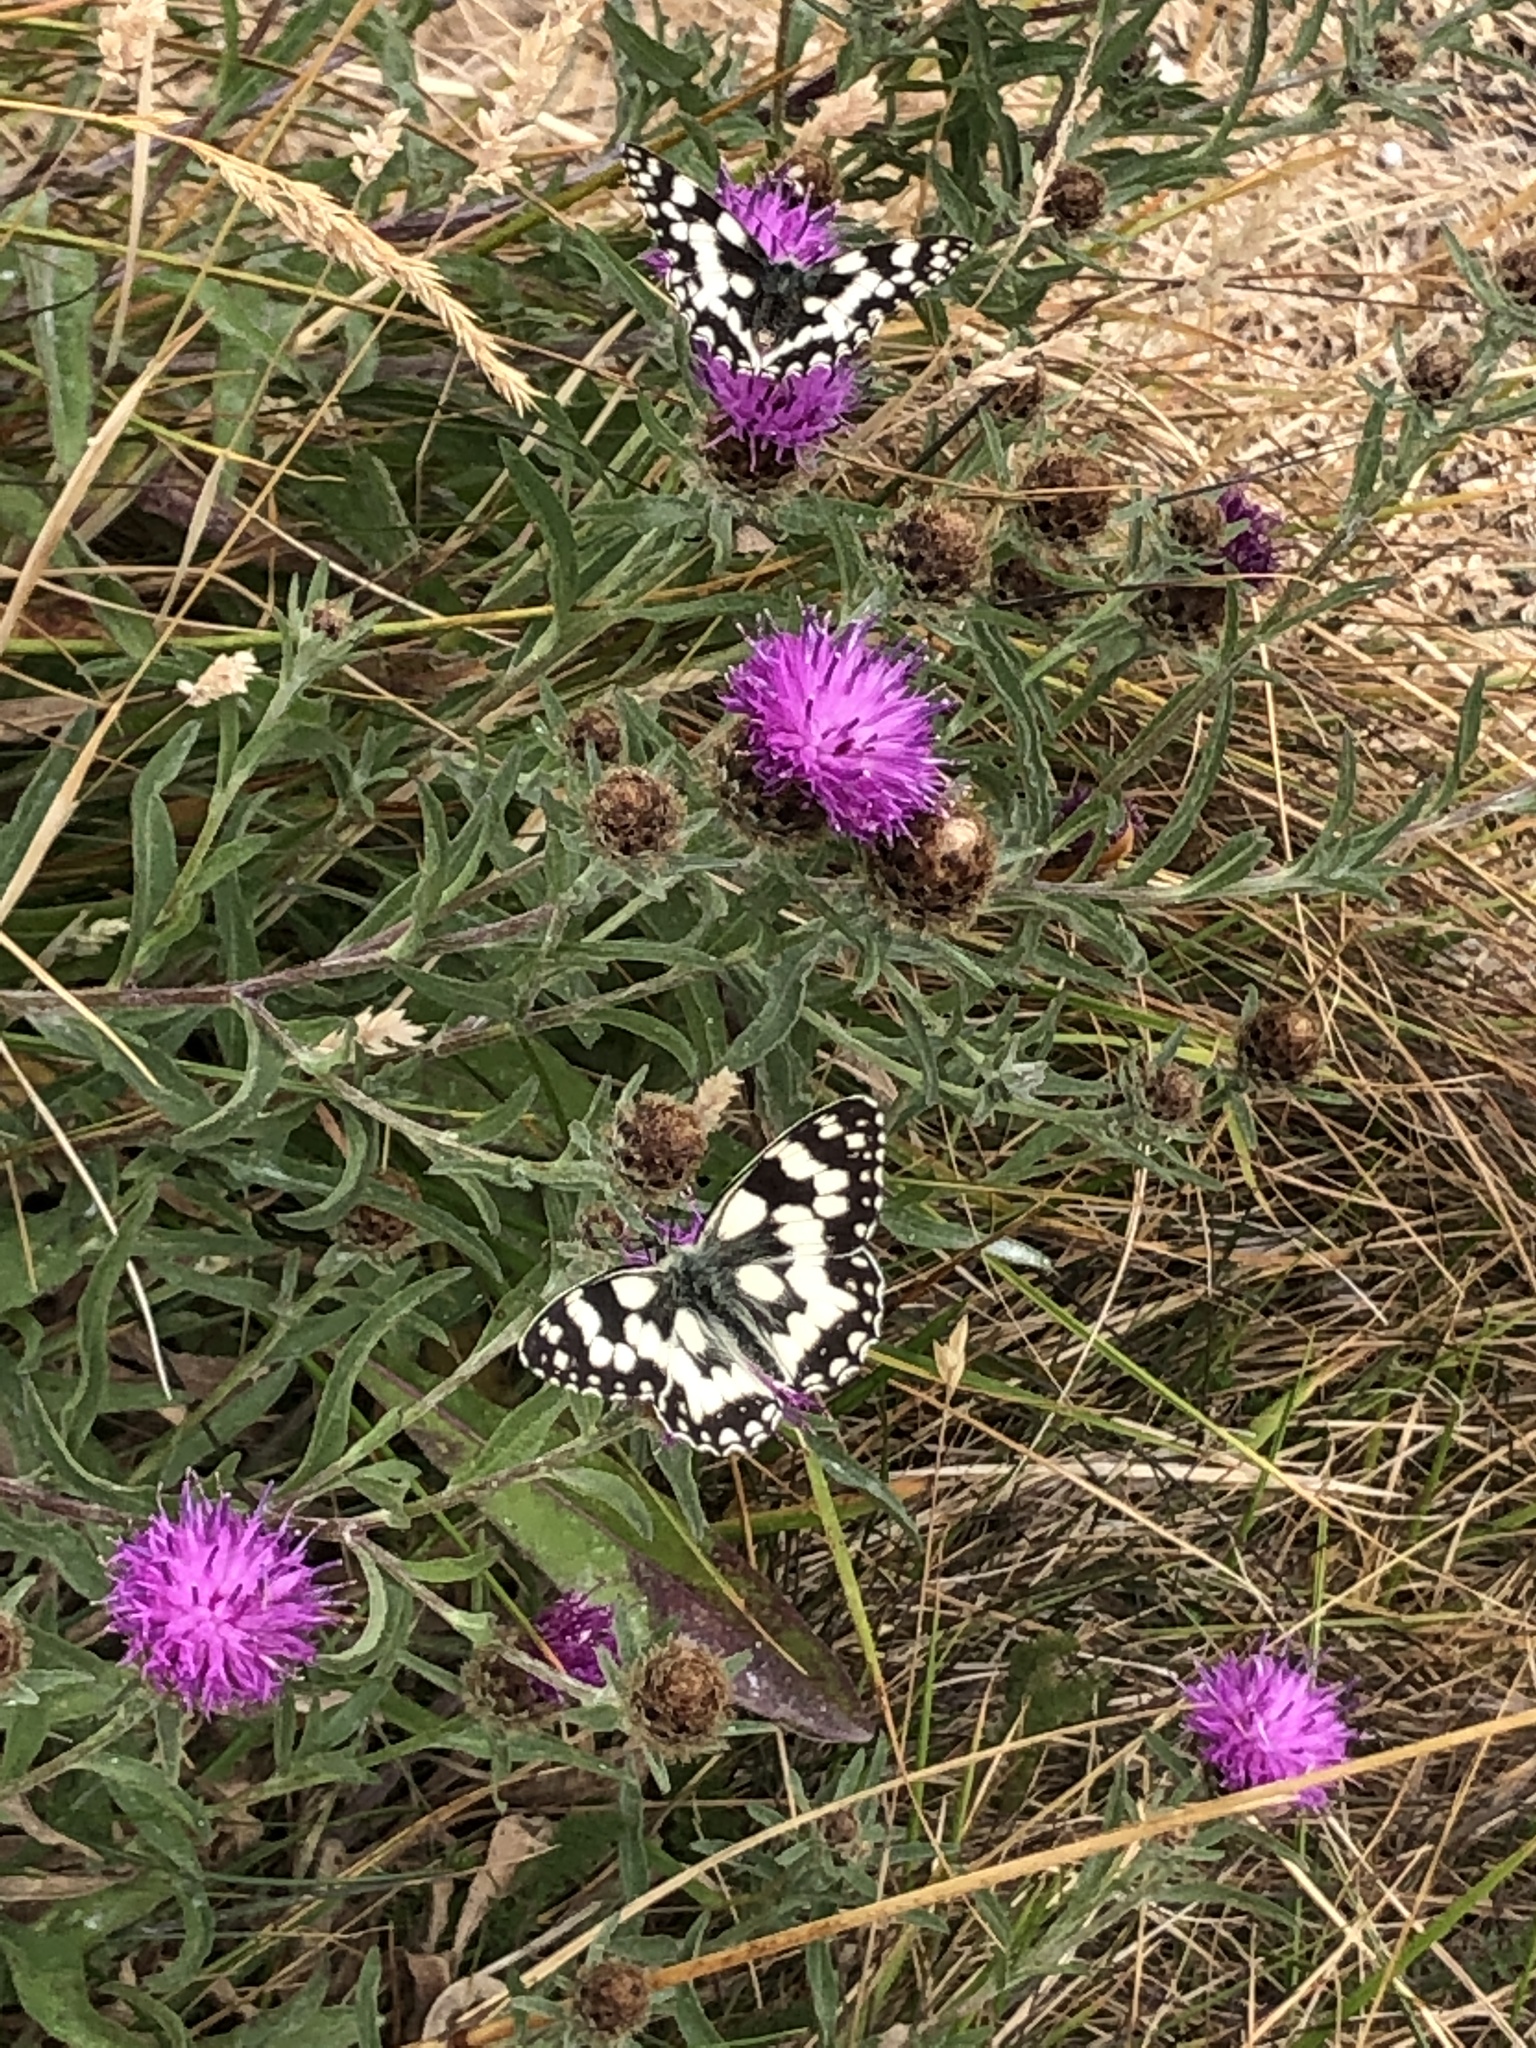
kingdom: Animalia
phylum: Arthropoda
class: Insecta
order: Lepidoptera
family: Nymphalidae
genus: Melanargia
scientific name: Melanargia galathea
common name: Marbled white
